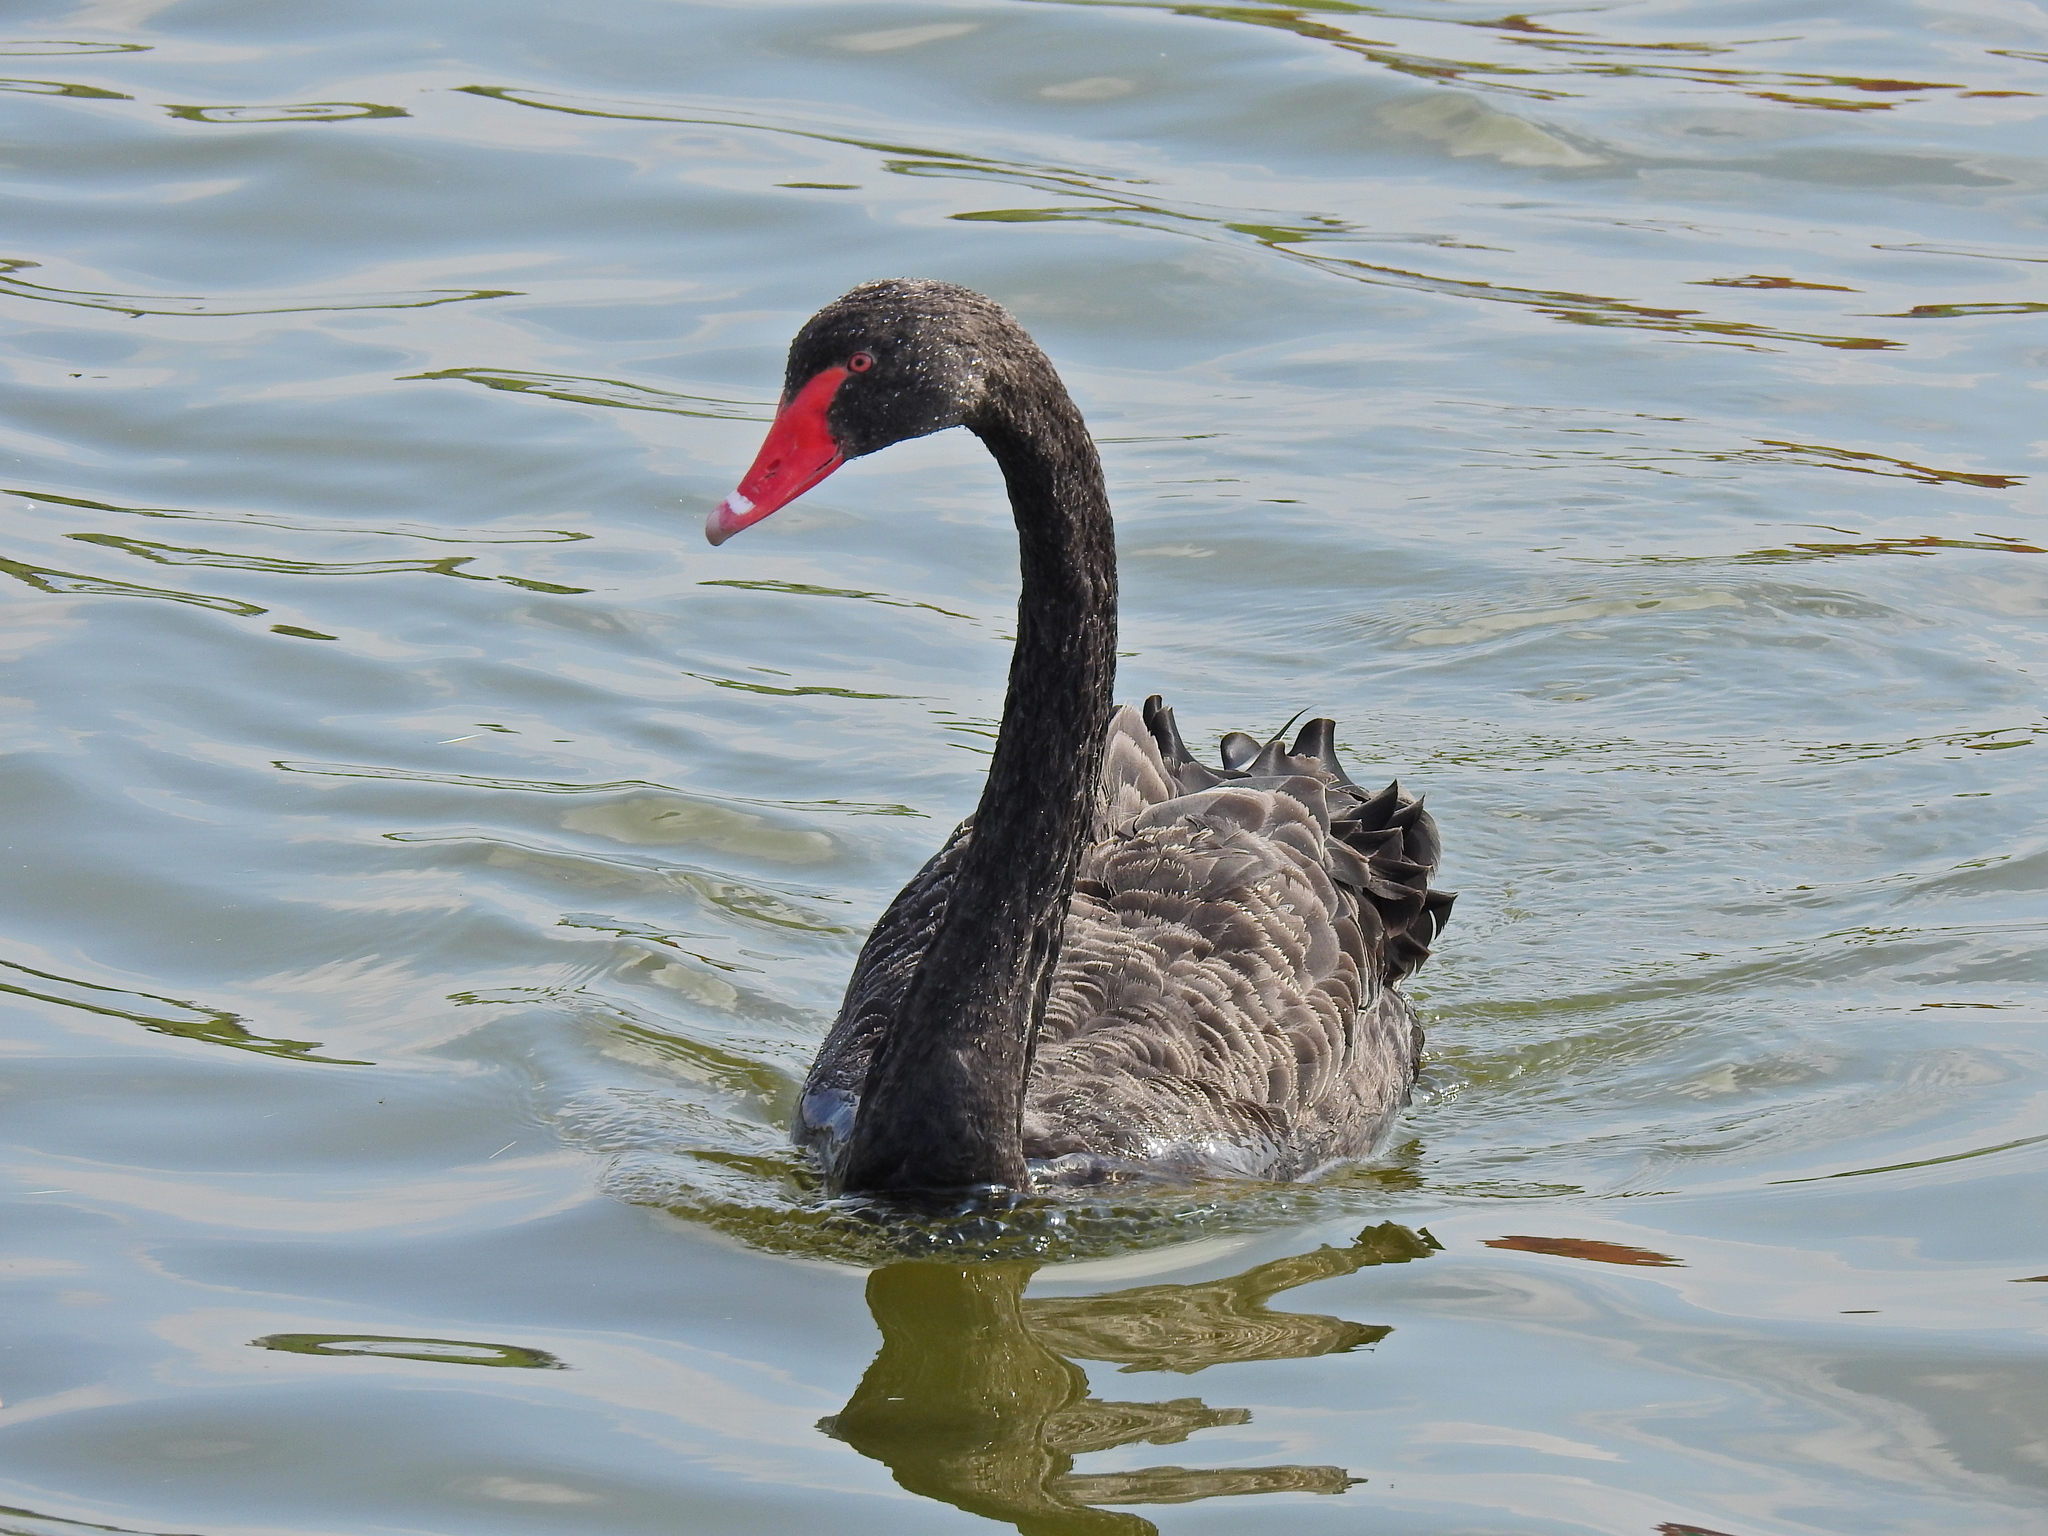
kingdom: Animalia
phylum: Chordata
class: Aves
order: Anseriformes
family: Anatidae
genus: Cygnus
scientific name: Cygnus atratus
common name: Black swan
